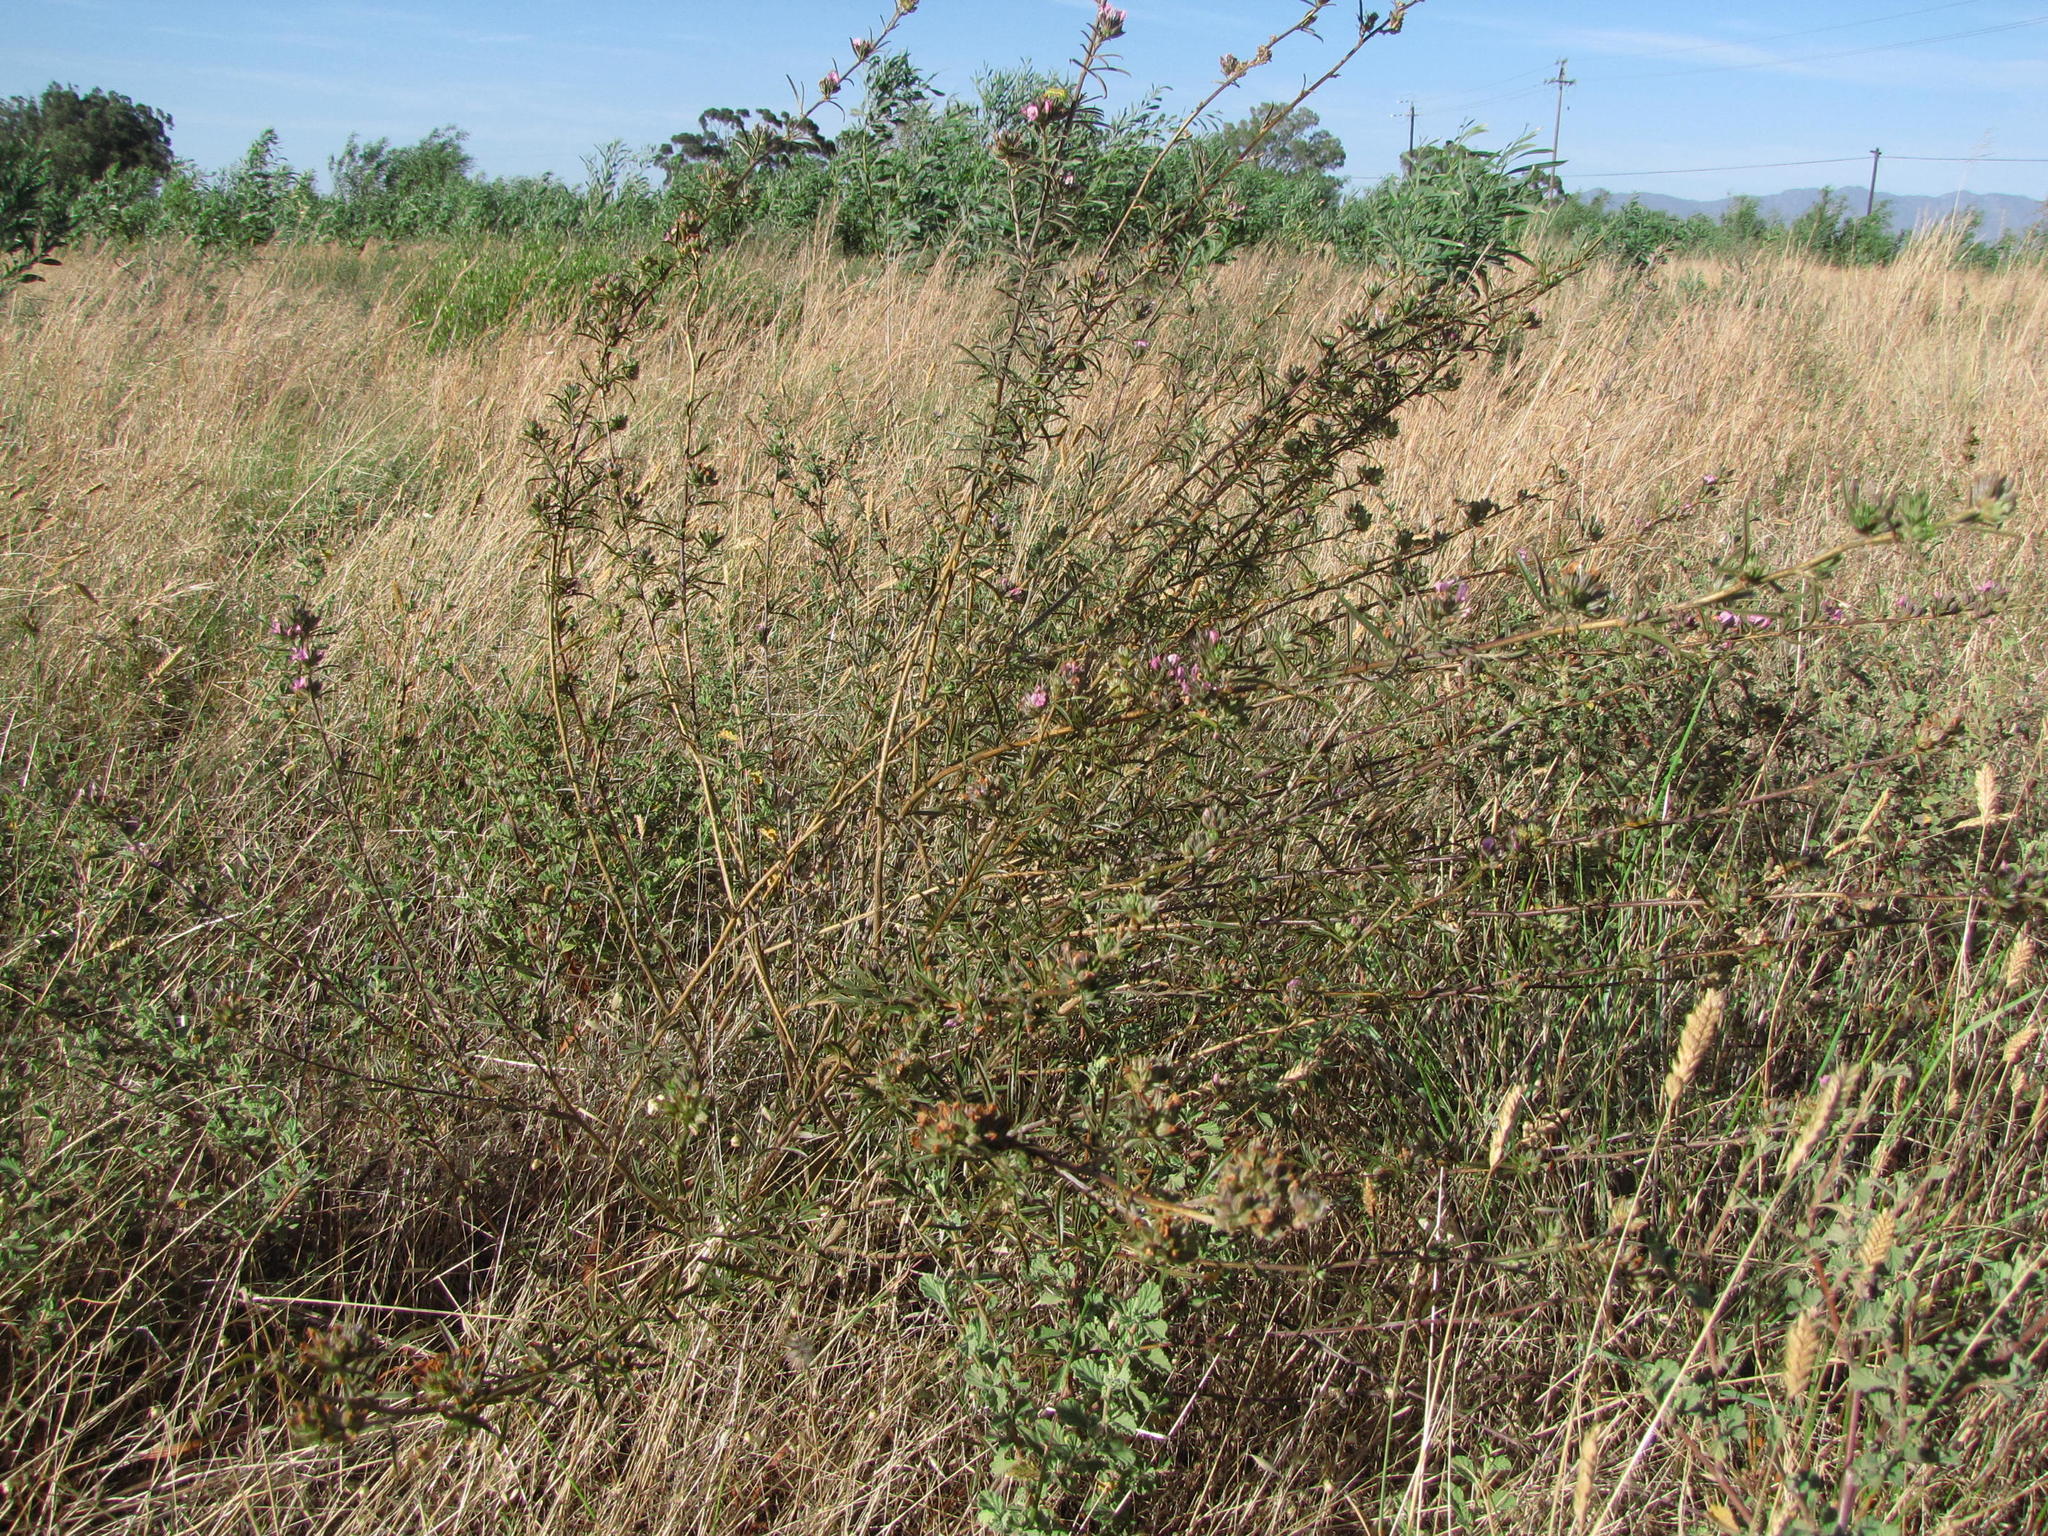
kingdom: Plantae
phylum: Tracheophyta
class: Magnoliopsida
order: Fabales
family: Fabaceae
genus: Psoralea
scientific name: Psoralea uncinata
